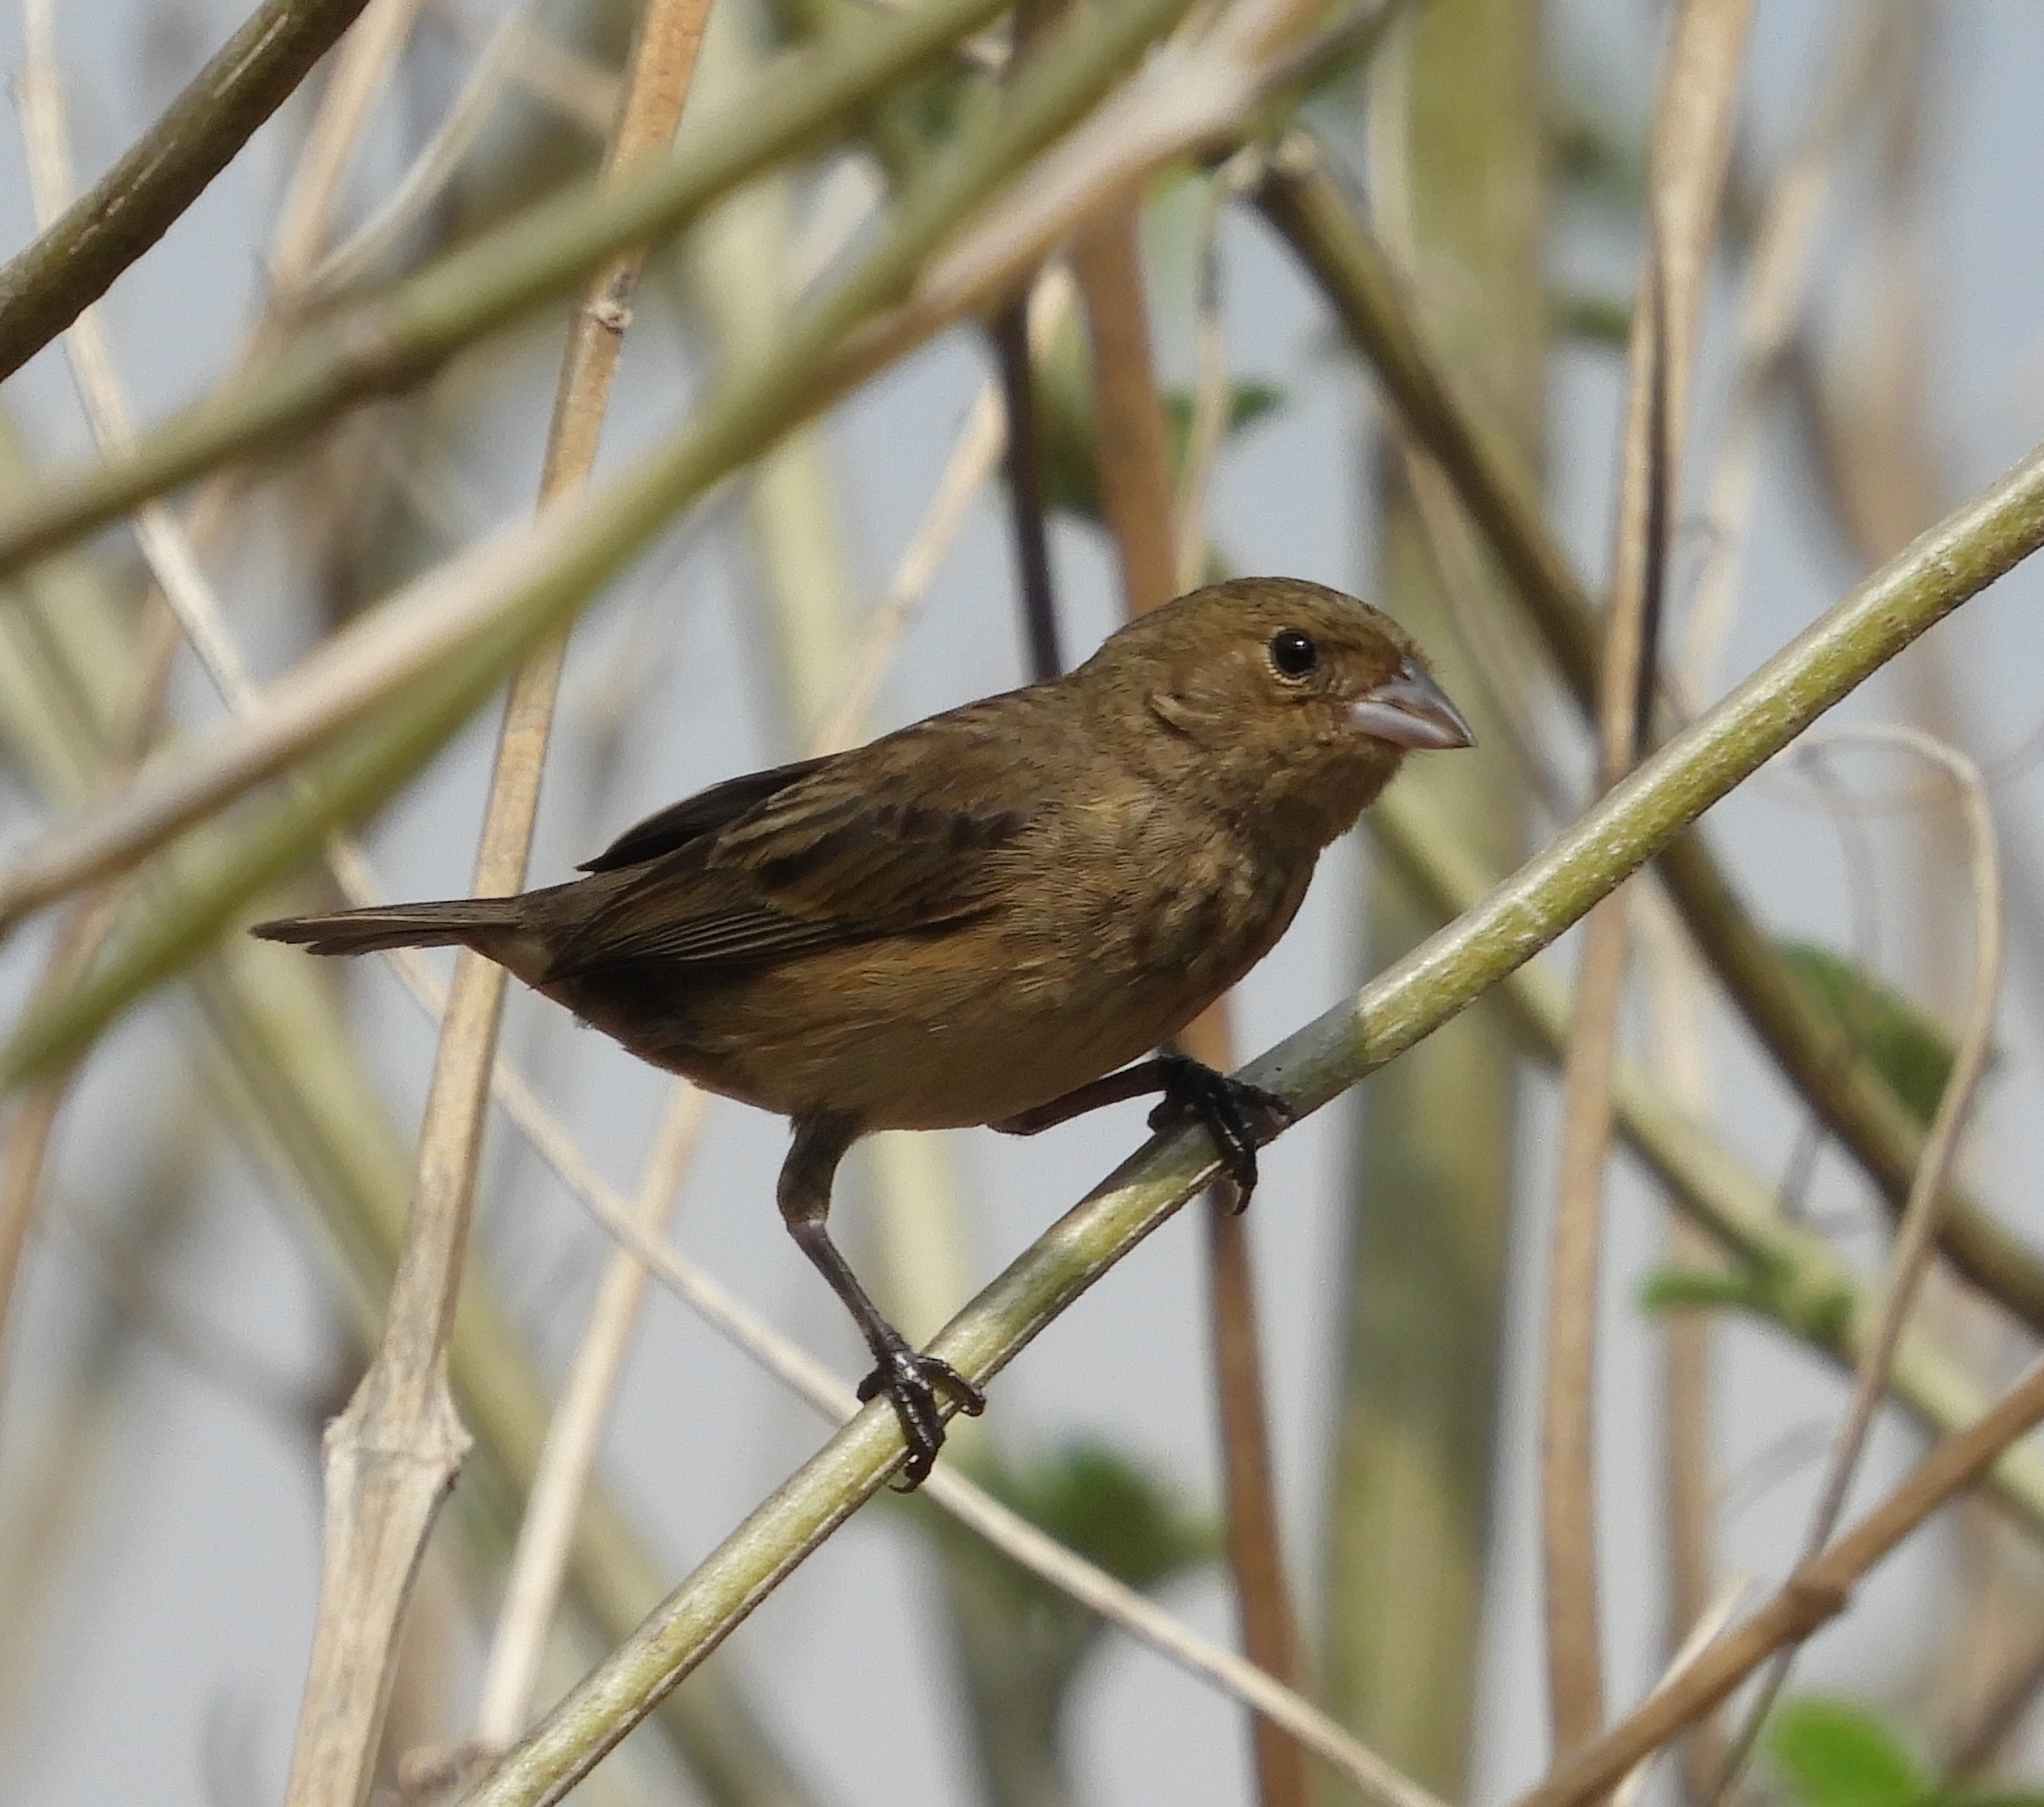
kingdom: Animalia
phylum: Chordata
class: Aves
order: Passeriformes
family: Thraupidae
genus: Volatinia
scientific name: Volatinia jacarina
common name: Blue-black grassquit
